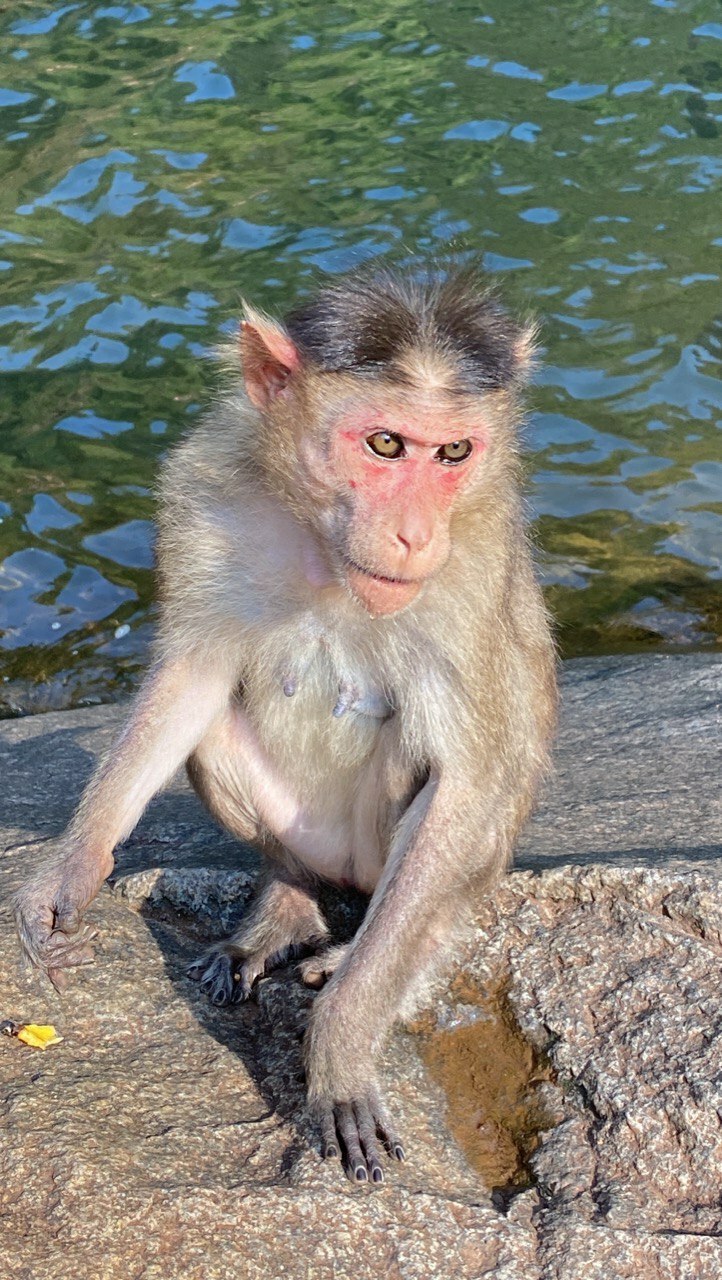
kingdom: Animalia
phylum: Chordata
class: Mammalia
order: Primates
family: Cercopithecidae
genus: Macaca
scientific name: Macaca radiata
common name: Bonnet macaque
